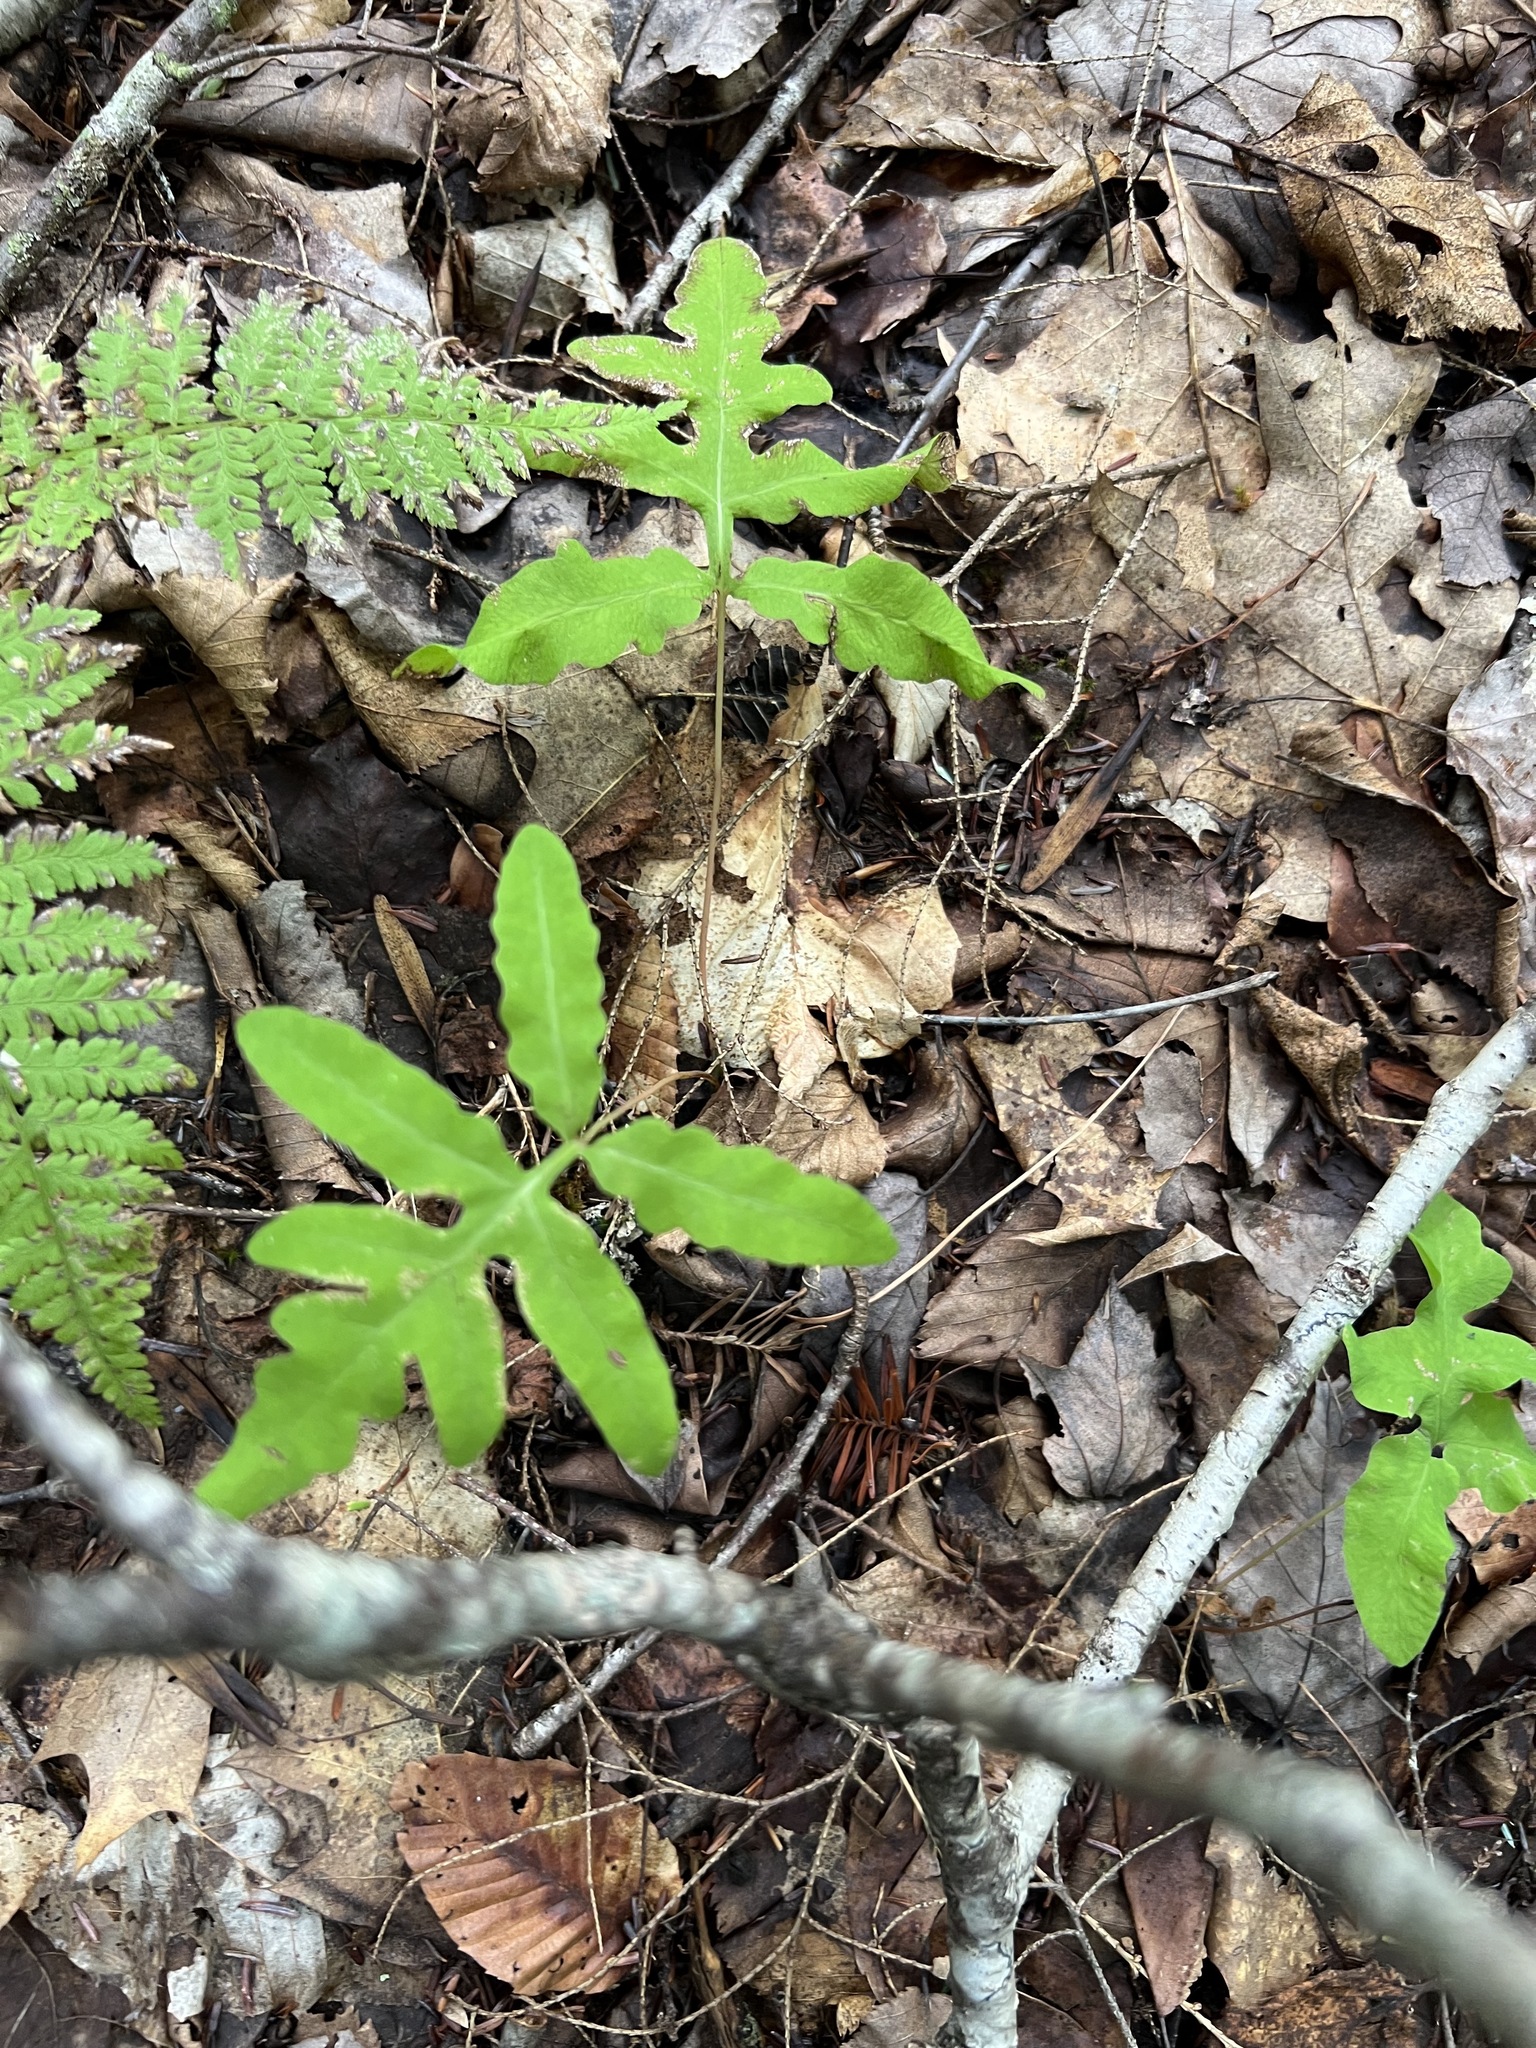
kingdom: Plantae
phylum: Tracheophyta
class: Polypodiopsida
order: Polypodiales
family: Onocleaceae
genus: Onoclea
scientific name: Onoclea sensibilis
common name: Sensitive fern
